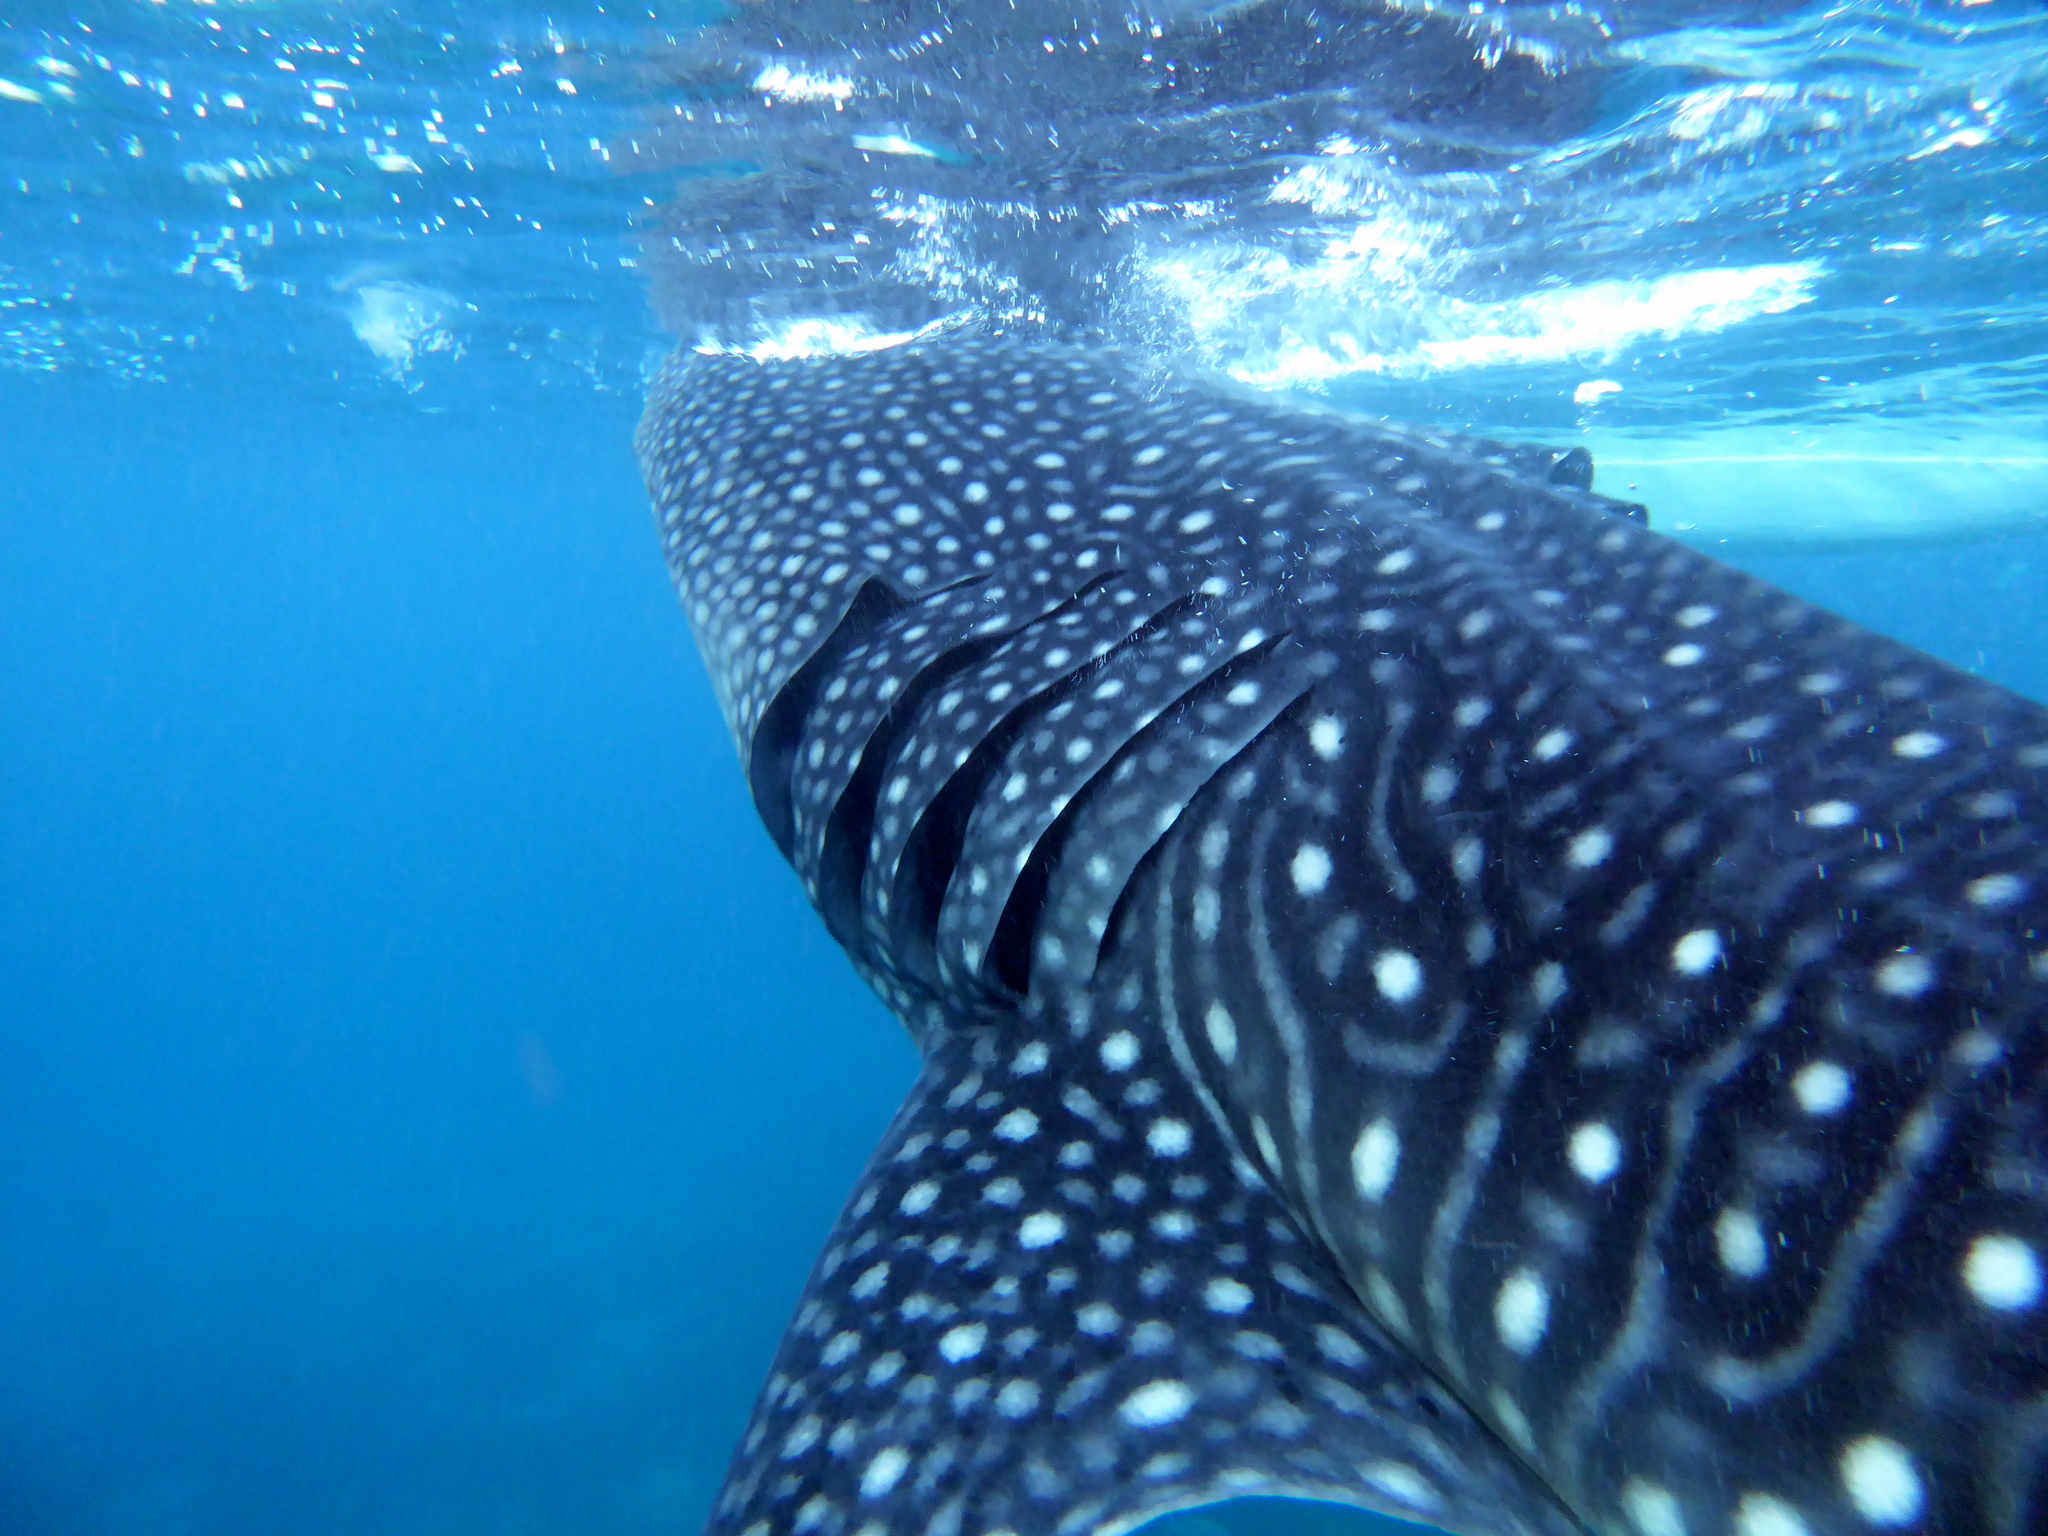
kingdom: Animalia
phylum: Chordata
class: Elasmobranchii
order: Orectolobiformes
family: Rhincodontidae
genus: Rhincodon
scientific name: Rhincodon typus
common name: Whale shark
